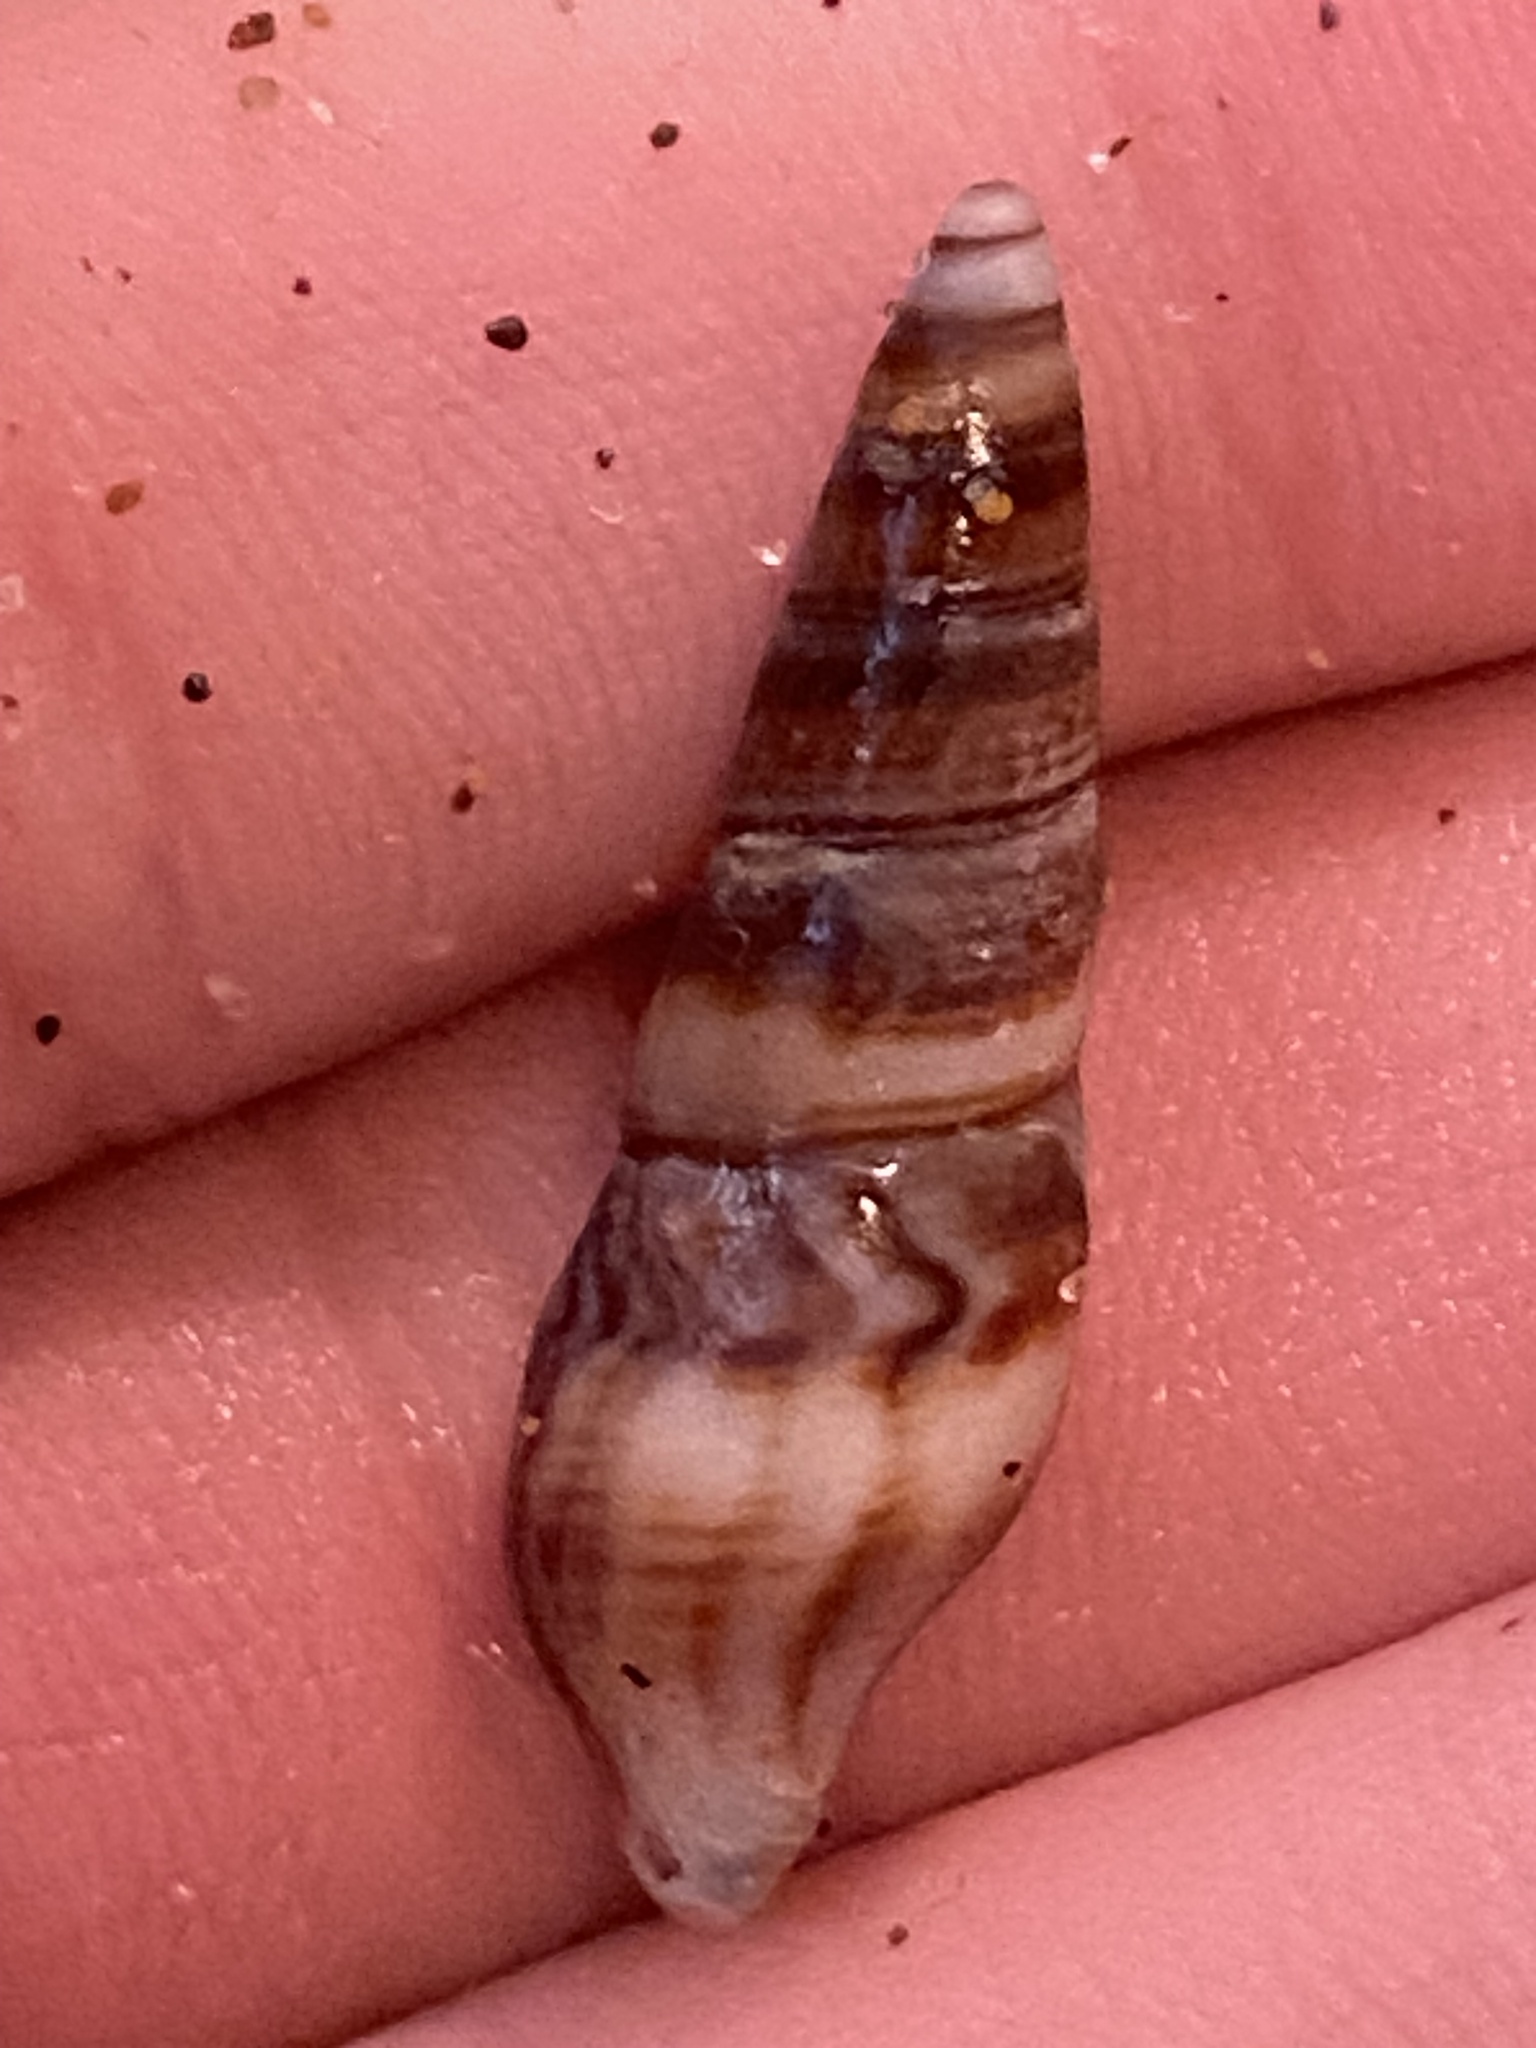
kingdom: Animalia
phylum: Mollusca
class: Gastropoda
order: Neogastropoda
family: Borsoniidae
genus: Ophiodermella
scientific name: Ophiodermella inermis
